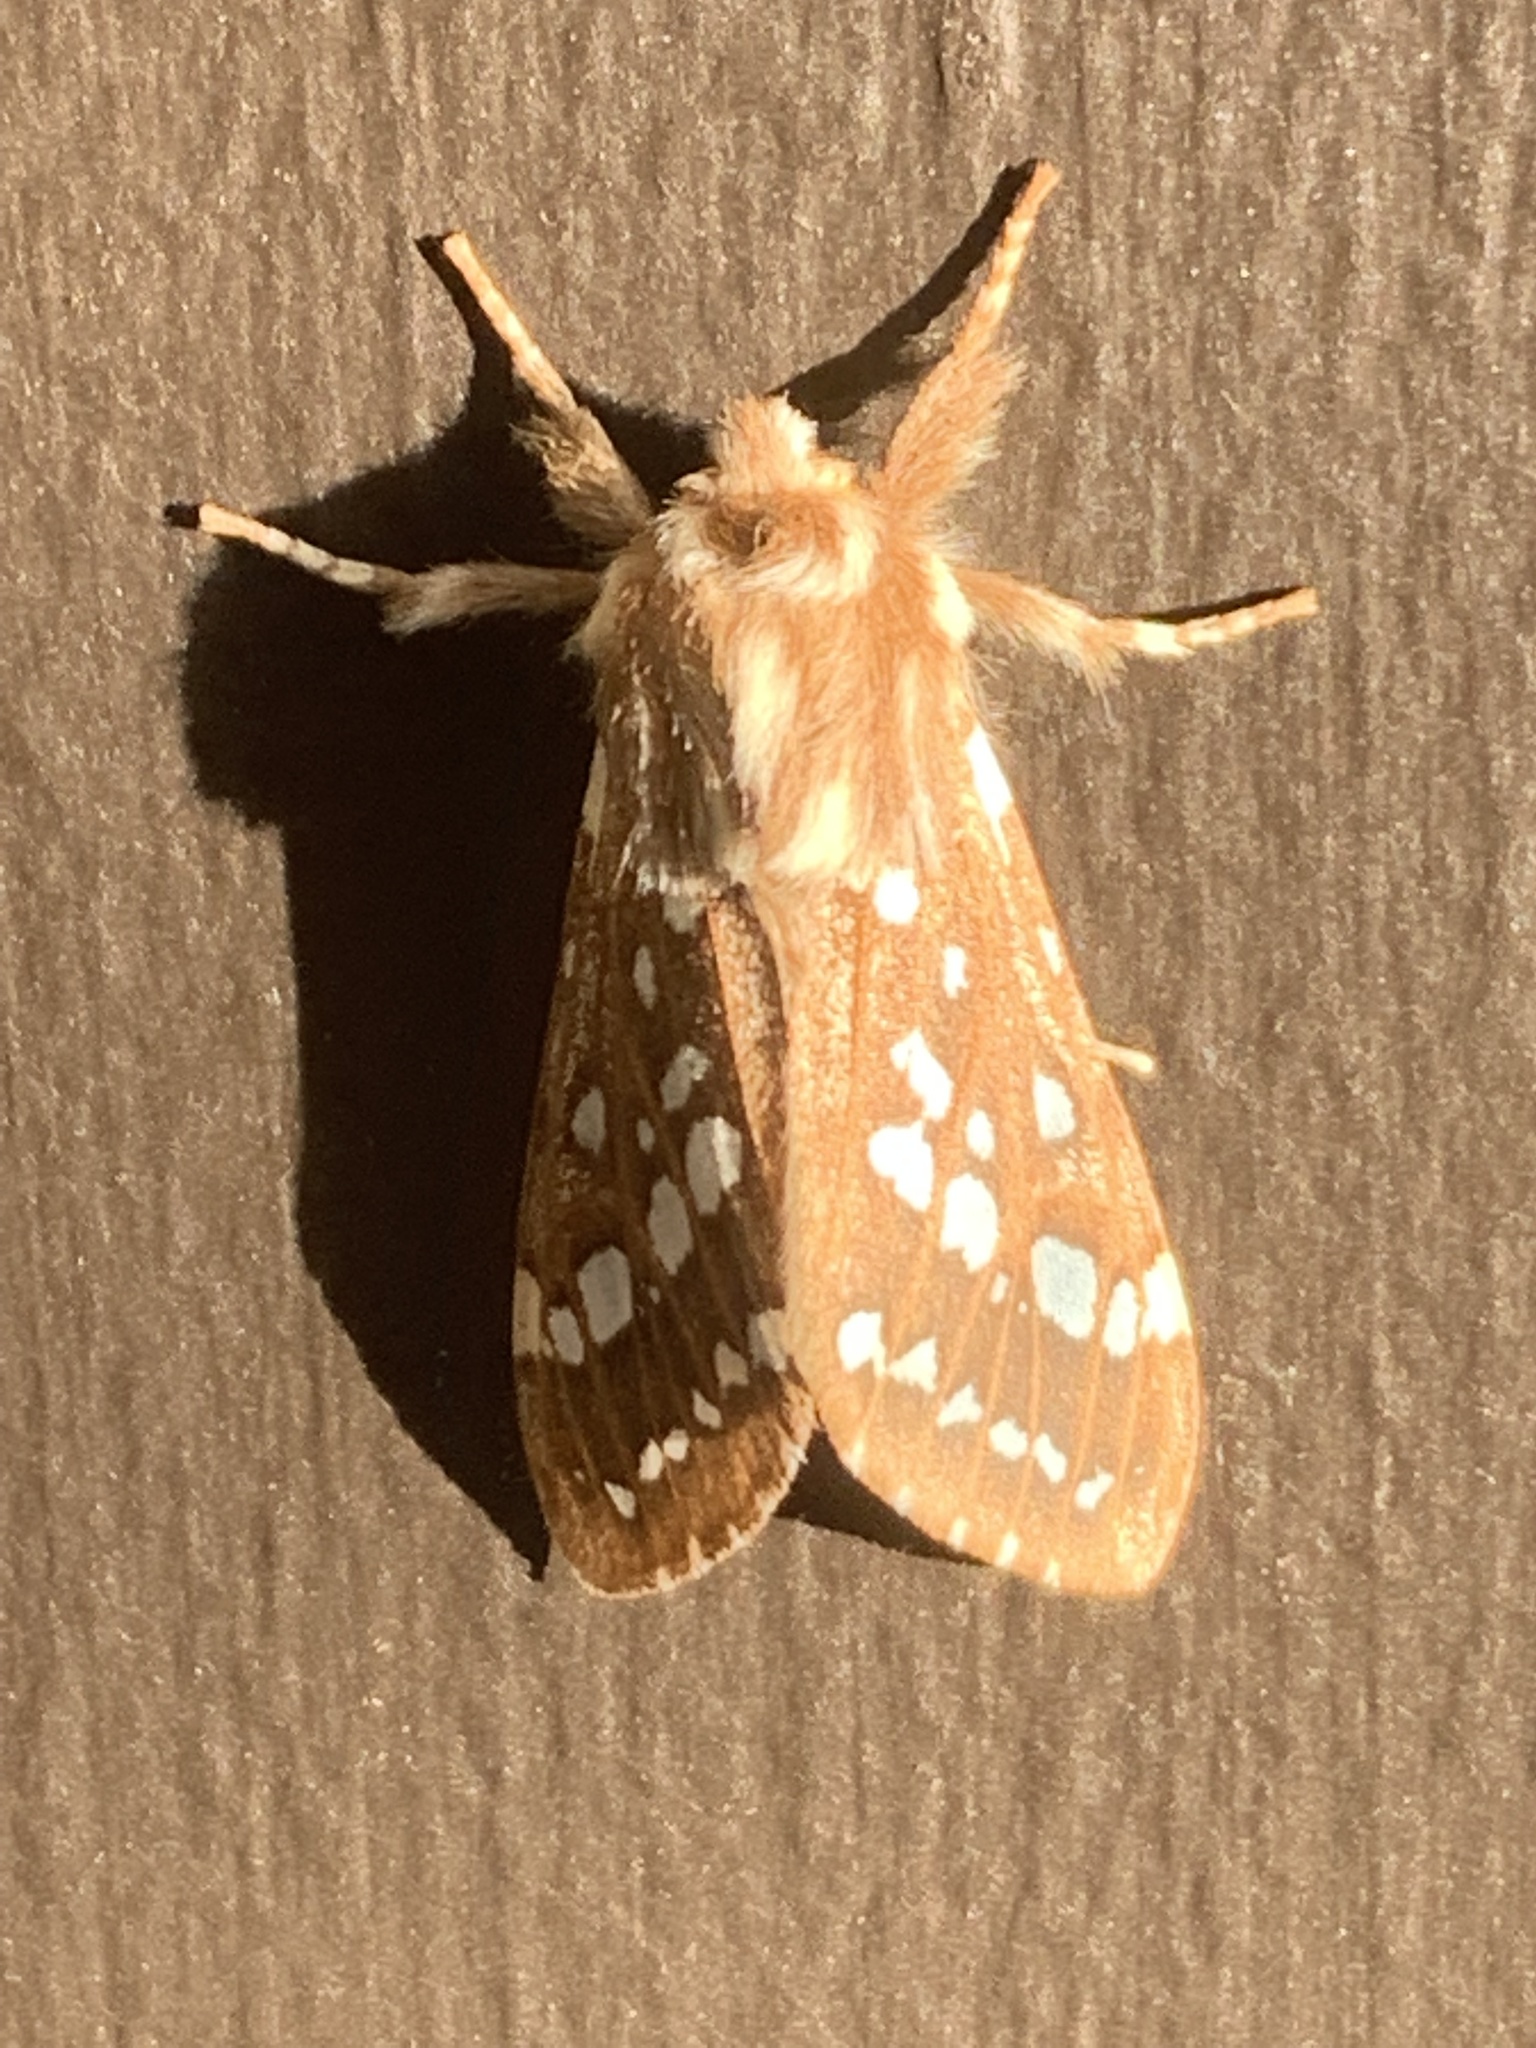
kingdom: Animalia
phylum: Arthropoda
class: Insecta
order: Lepidoptera
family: Erebidae
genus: Lophocampa
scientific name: Lophocampa sobrina
